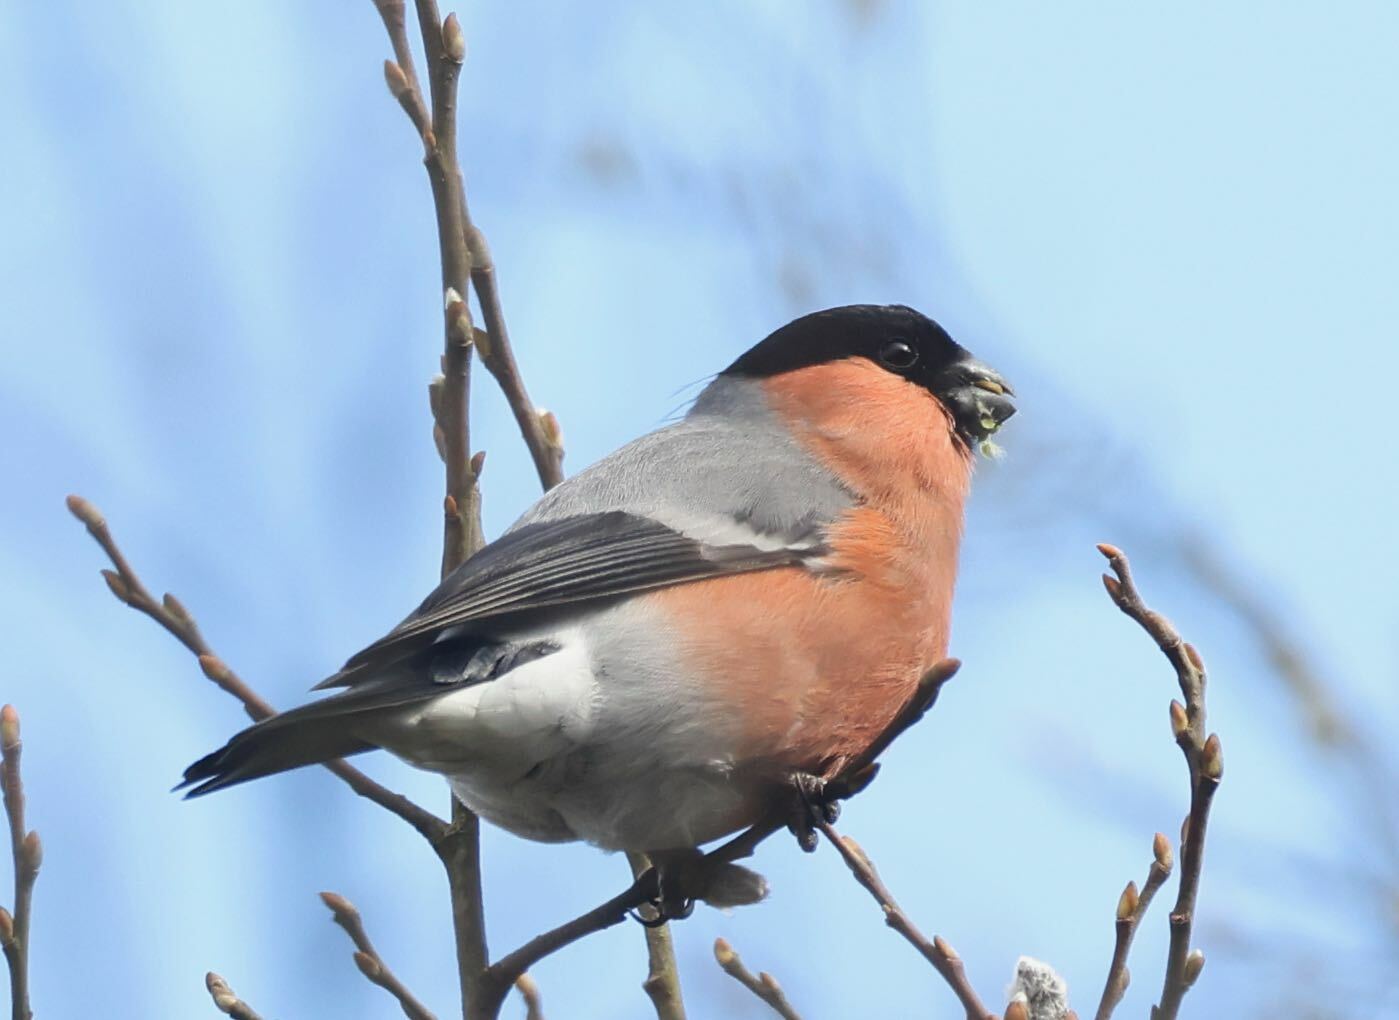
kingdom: Animalia
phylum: Chordata
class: Aves
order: Passeriformes
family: Fringillidae
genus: Pyrrhula
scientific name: Pyrrhula pyrrhula
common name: Eurasian bullfinch
